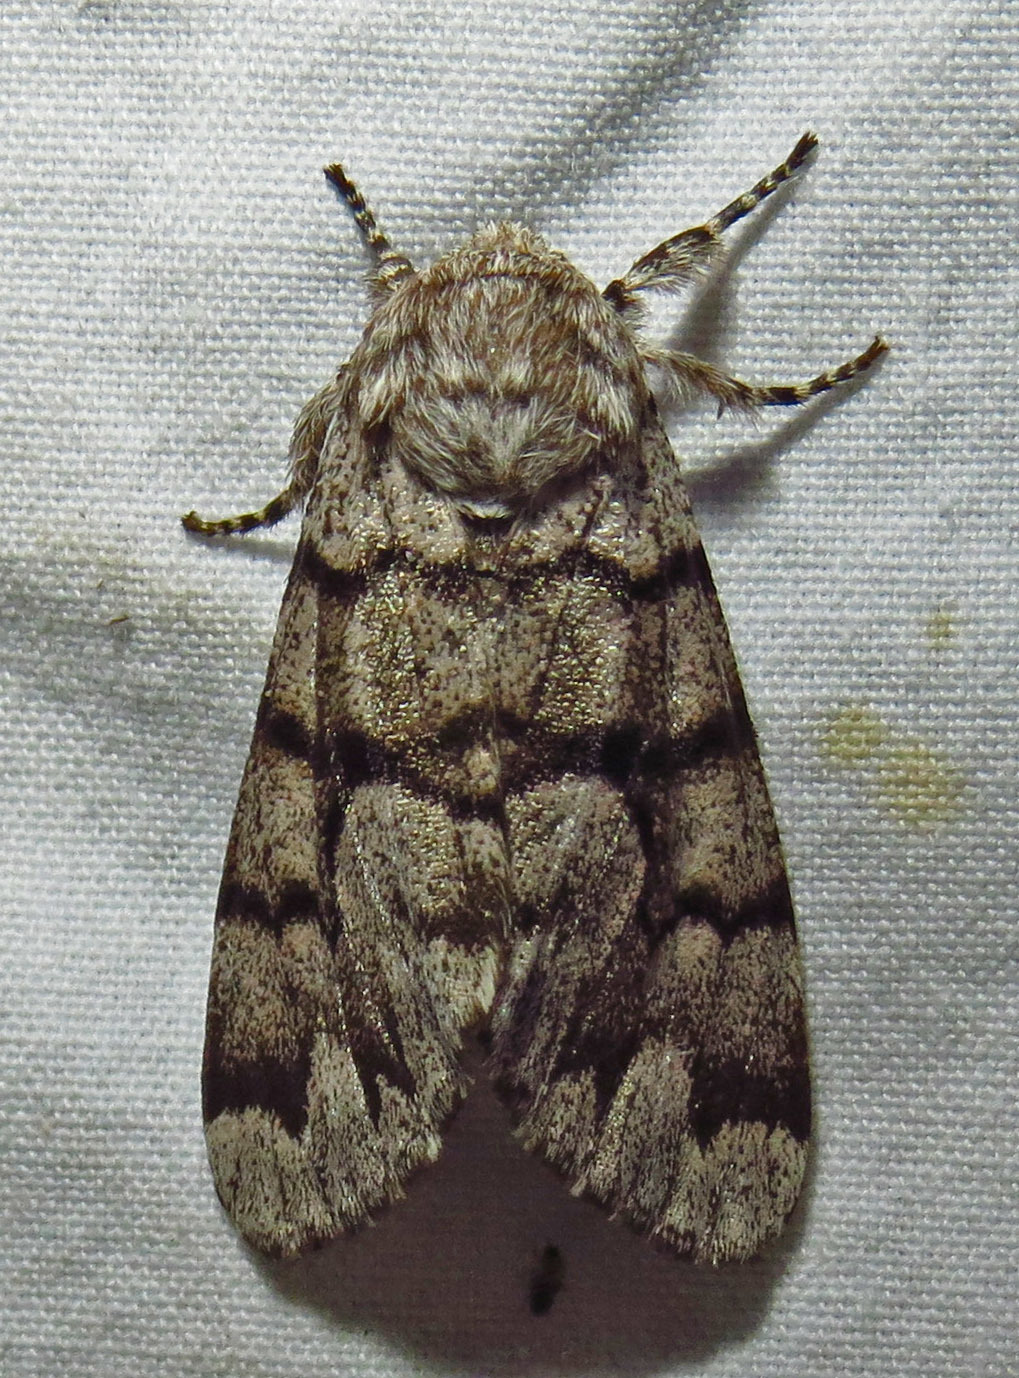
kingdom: Animalia
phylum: Arthropoda
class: Insecta
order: Lepidoptera
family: Noctuidae
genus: Panthea
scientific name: Panthea furcilla
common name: Eastern panthea moth
